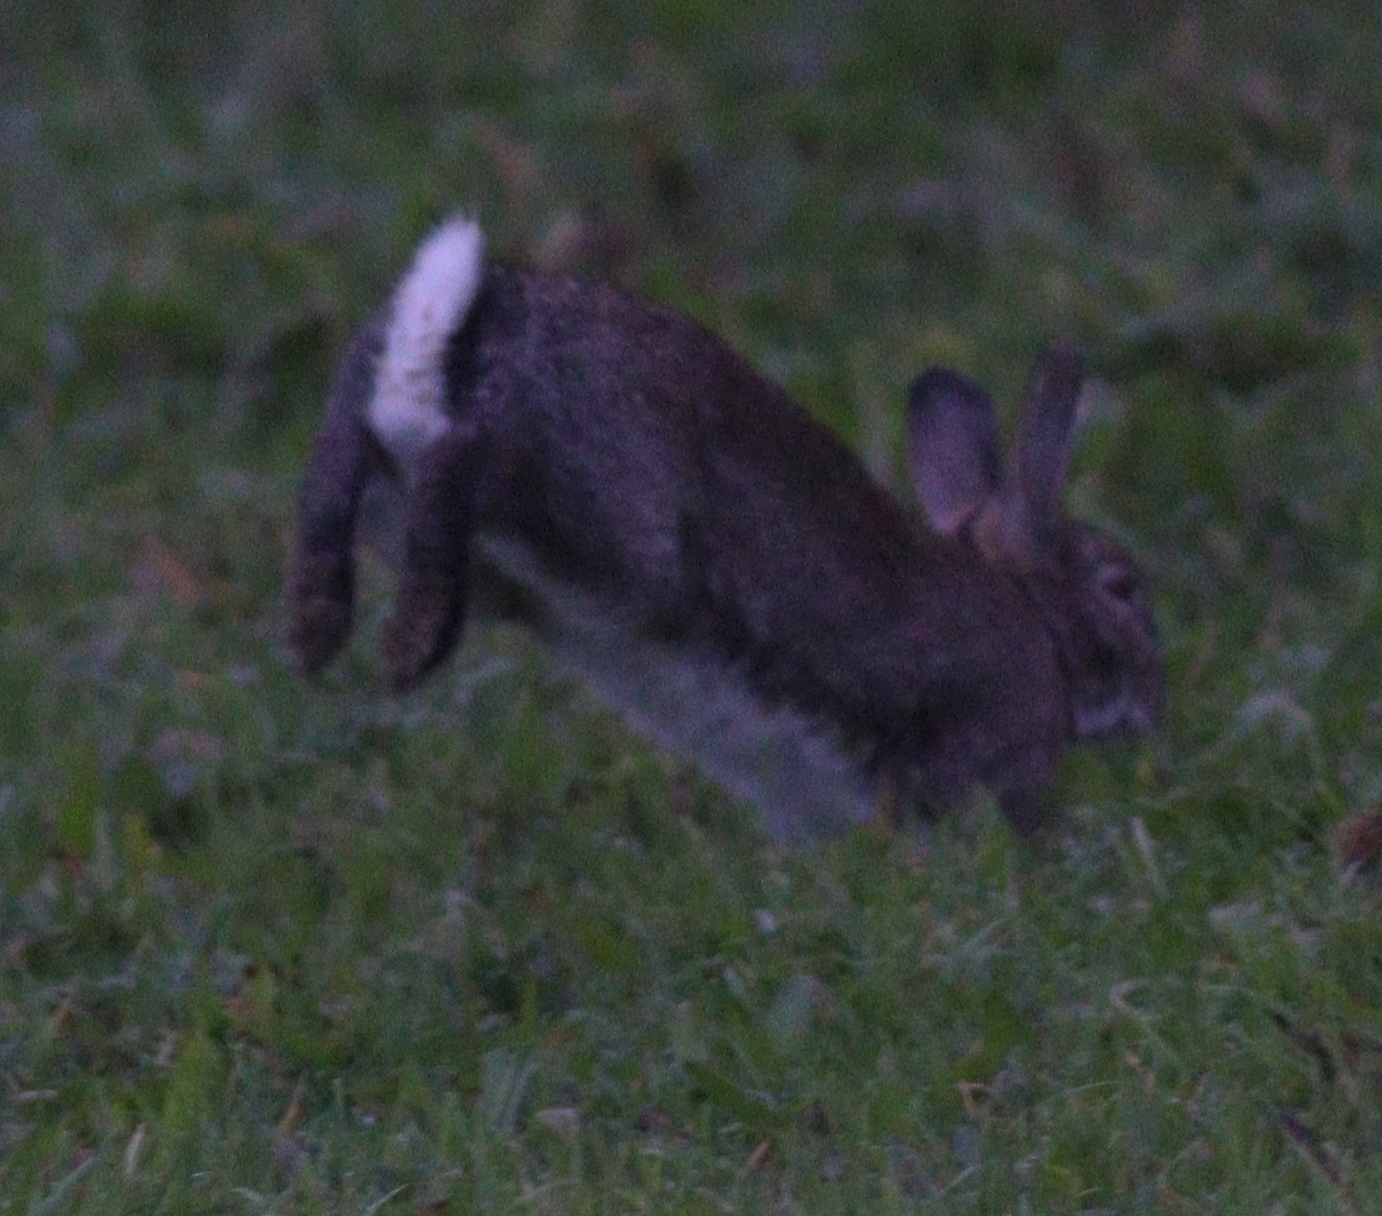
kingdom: Animalia
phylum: Chordata
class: Mammalia
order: Lagomorpha
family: Leporidae
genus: Oryctolagus
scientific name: Oryctolagus cuniculus
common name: European rabbit
